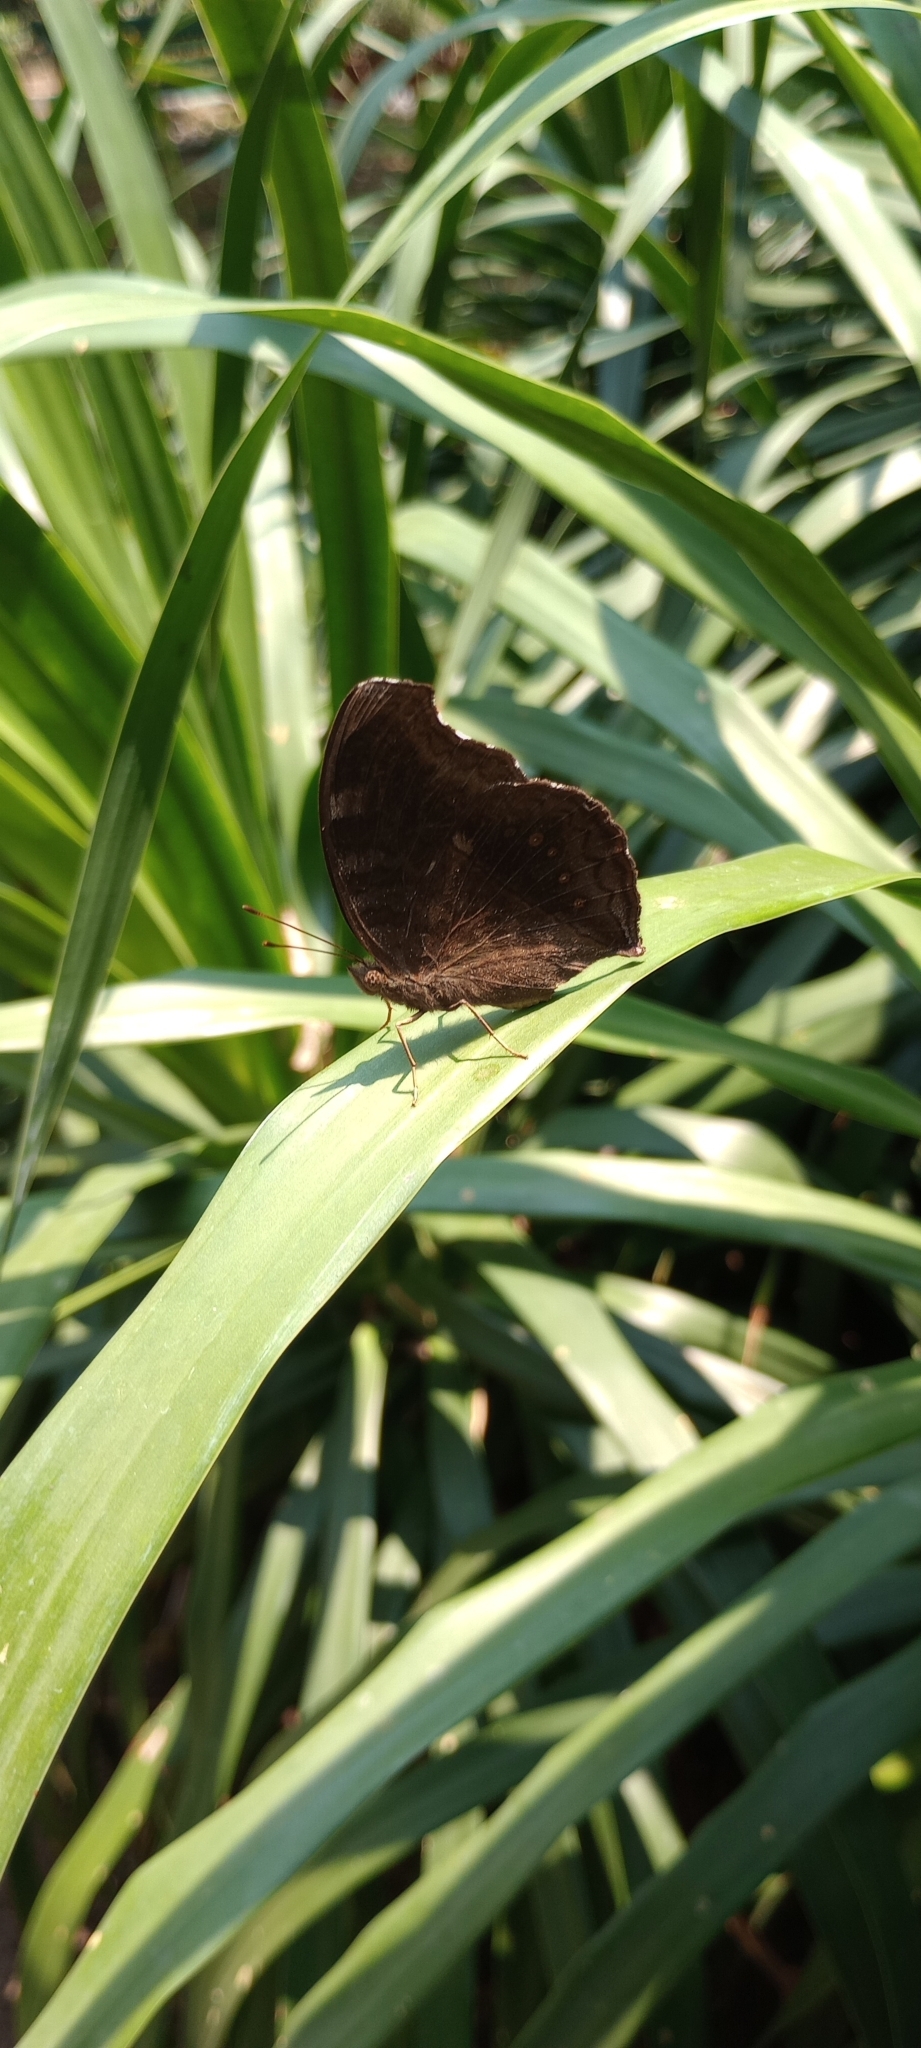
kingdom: Animalia
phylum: Arthropoda
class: Insecta
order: Lepidoptera
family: Nymphalidae
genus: Junonia
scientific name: Junonia iphita
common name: Chocolate pansy
